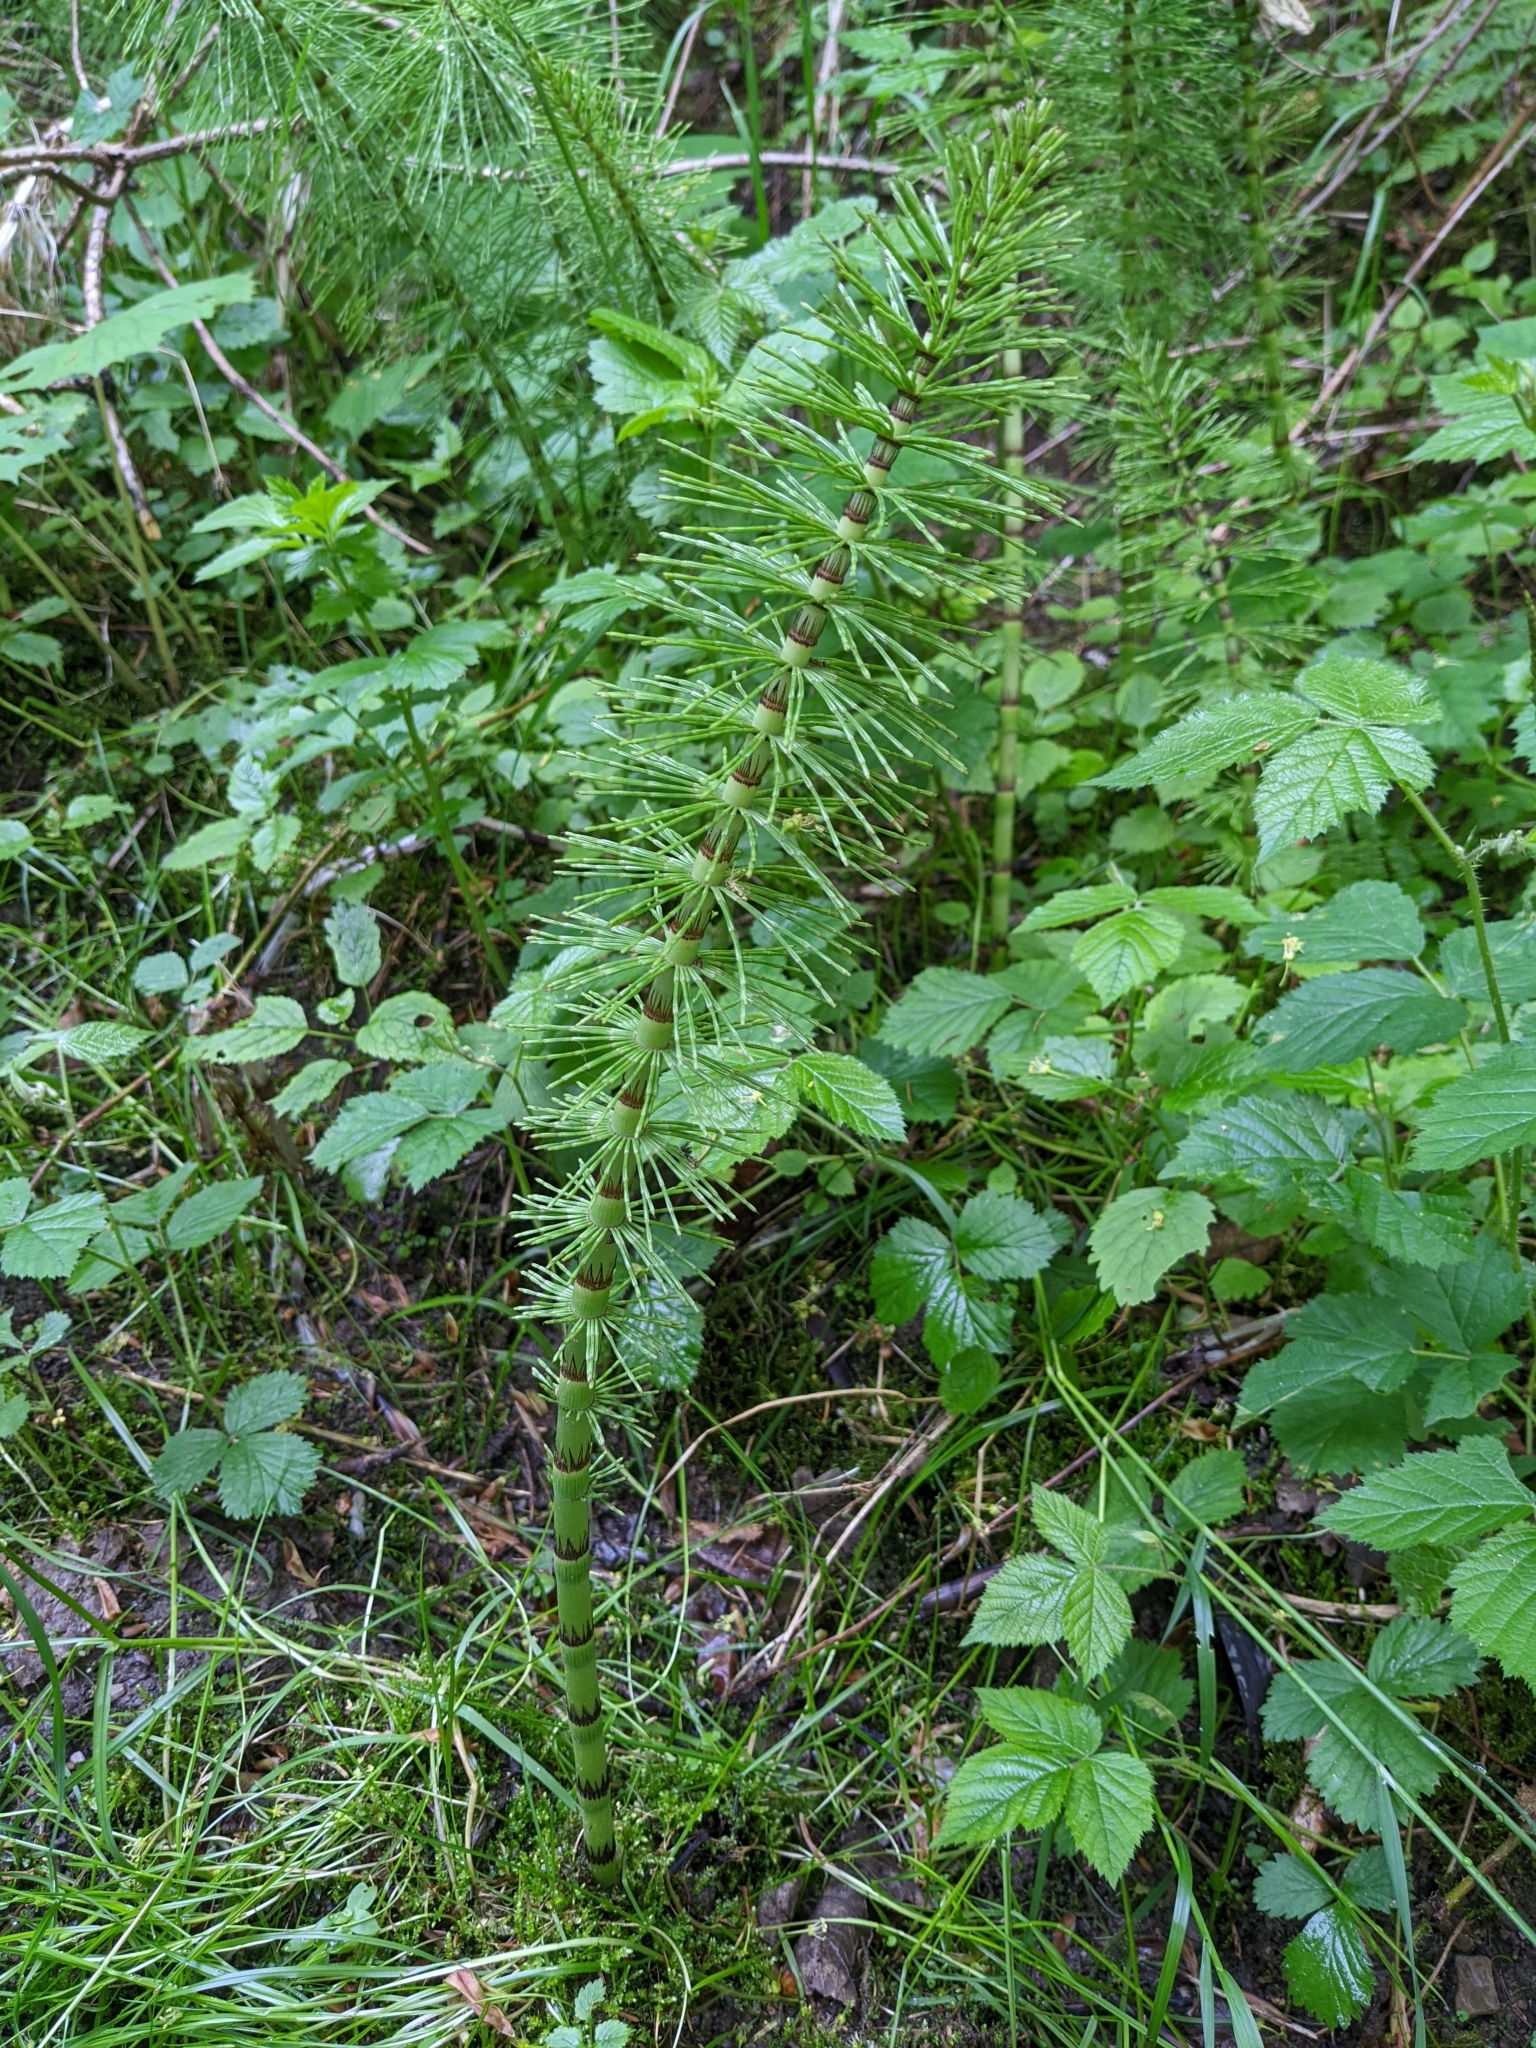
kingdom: Plantae
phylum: Tracheophyta
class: Polypodiopsida
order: Equisetales
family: Equisetaceae
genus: Equisetum
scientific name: Equisetum telmateia
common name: Great horsetail
